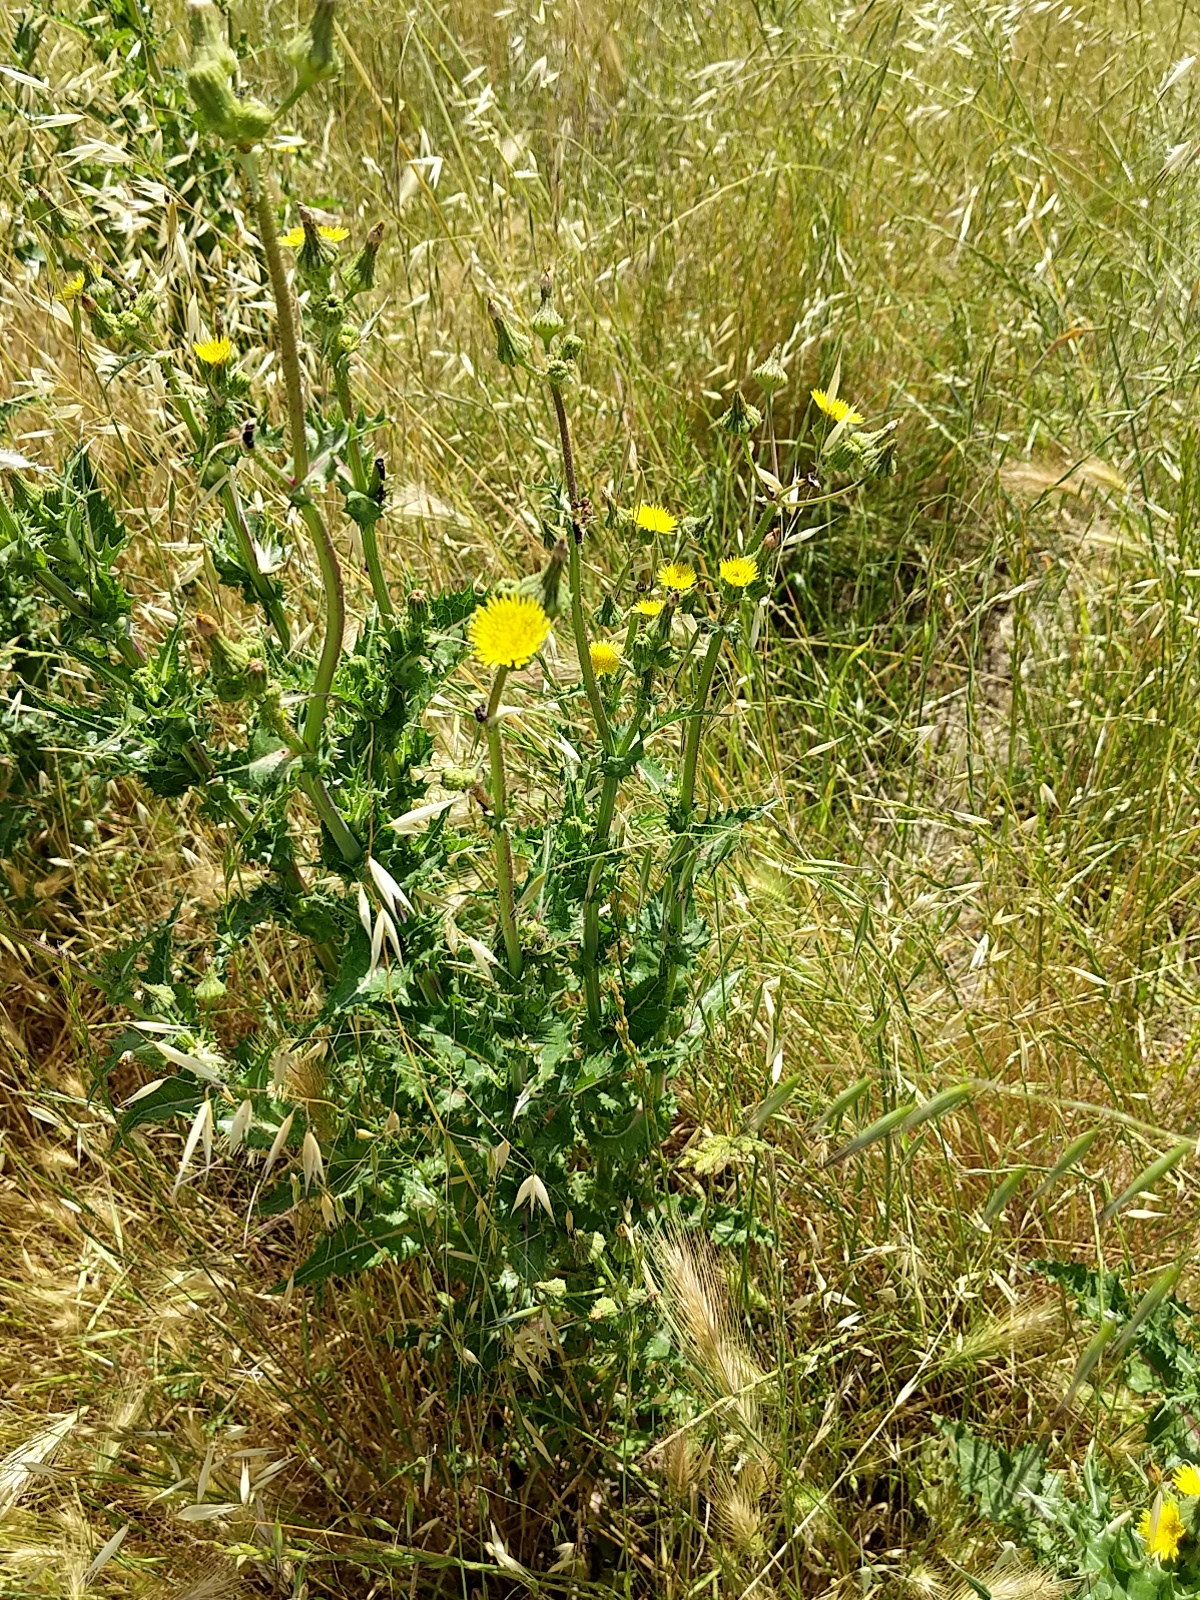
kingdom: Plantae
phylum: Tracheophyta
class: Magnoliopsida
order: Asterales
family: Asteraceae
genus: Sonchus
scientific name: Sonchus asper
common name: Prickly sow-thistle
